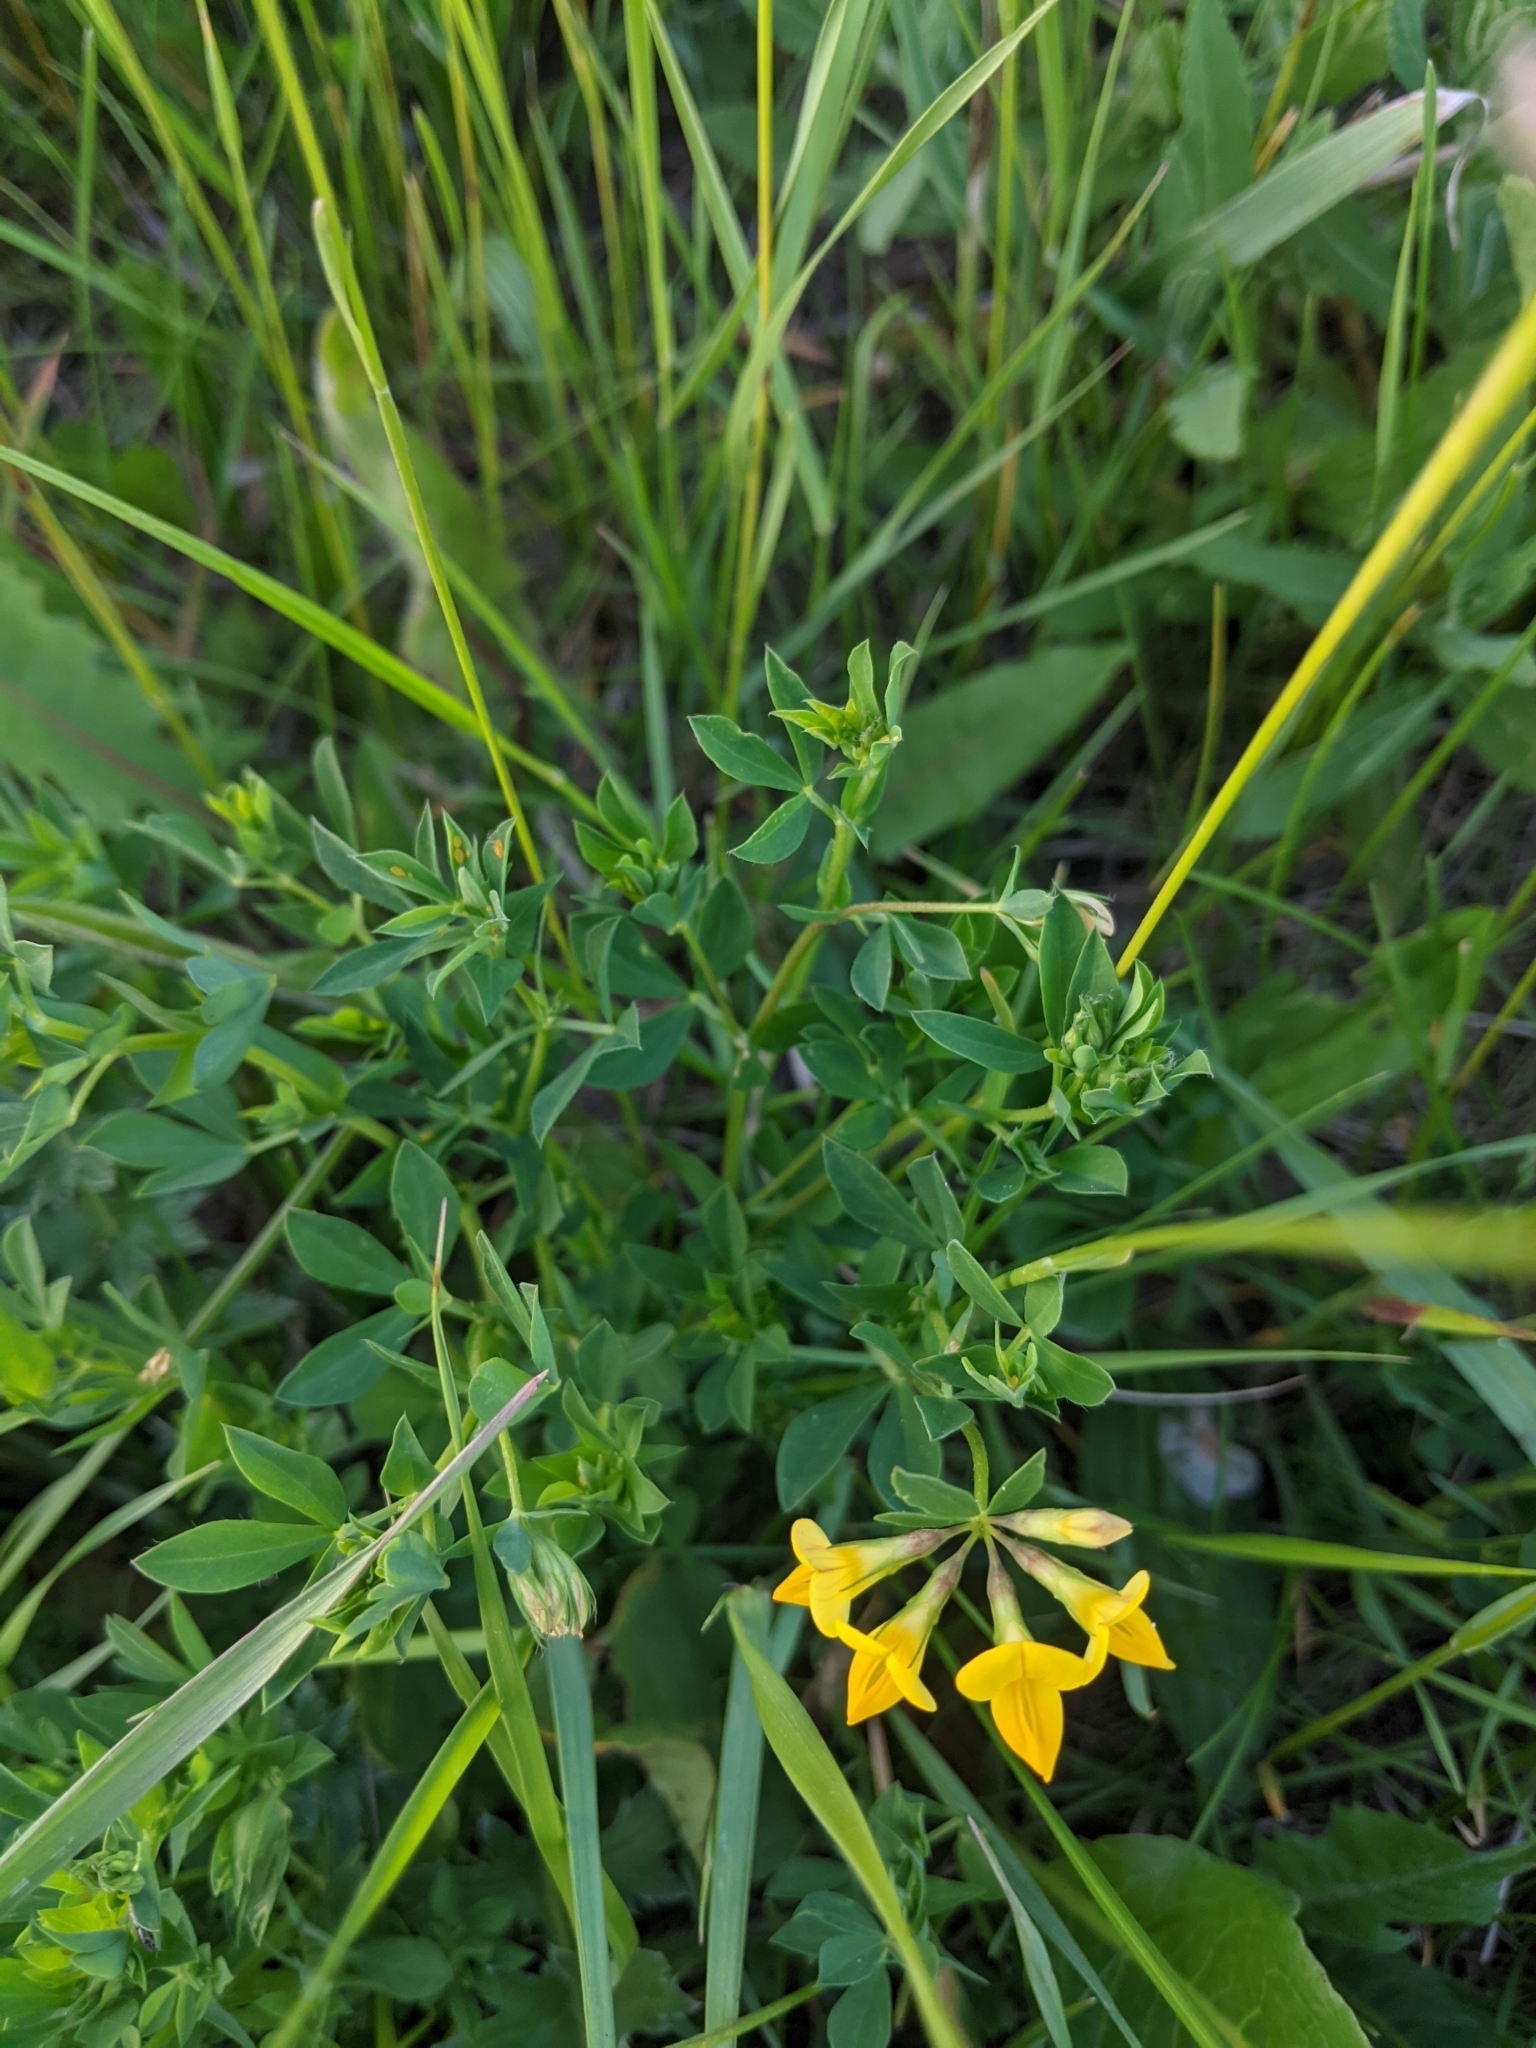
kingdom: Plantae
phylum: Tracheophyta
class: Magnoliopsida
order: Fabales
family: Fabaceae
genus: Lotus
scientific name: Lotus corniculatus
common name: Common bird's-foot-trefoil
